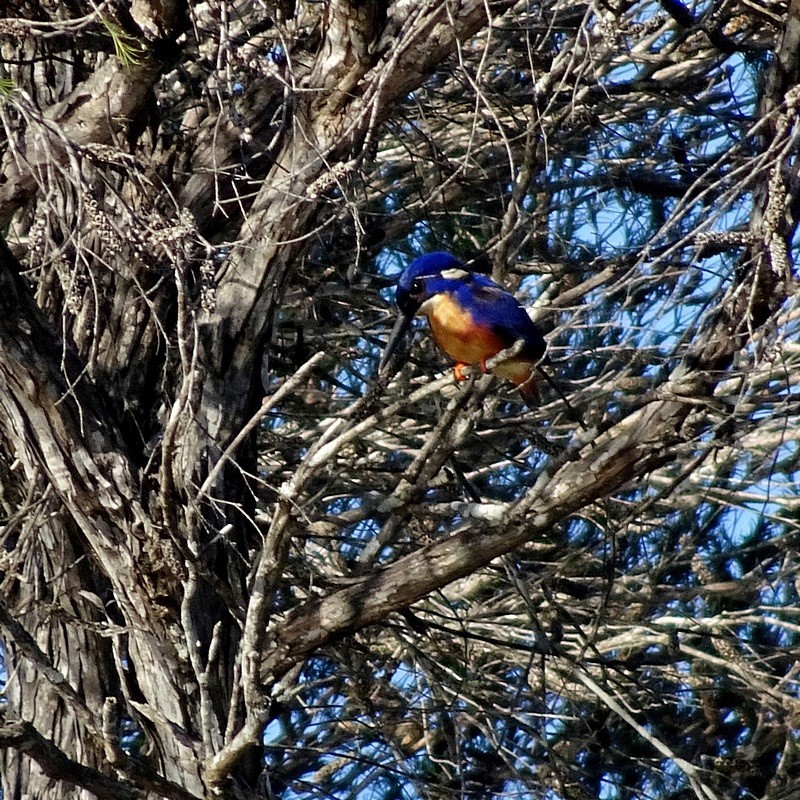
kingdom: Animalia
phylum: Chordata
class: Aves
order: Coraciiformes
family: Alcedinidae
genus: Ceyx
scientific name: Ceyx azureus
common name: Azure kingfisher
